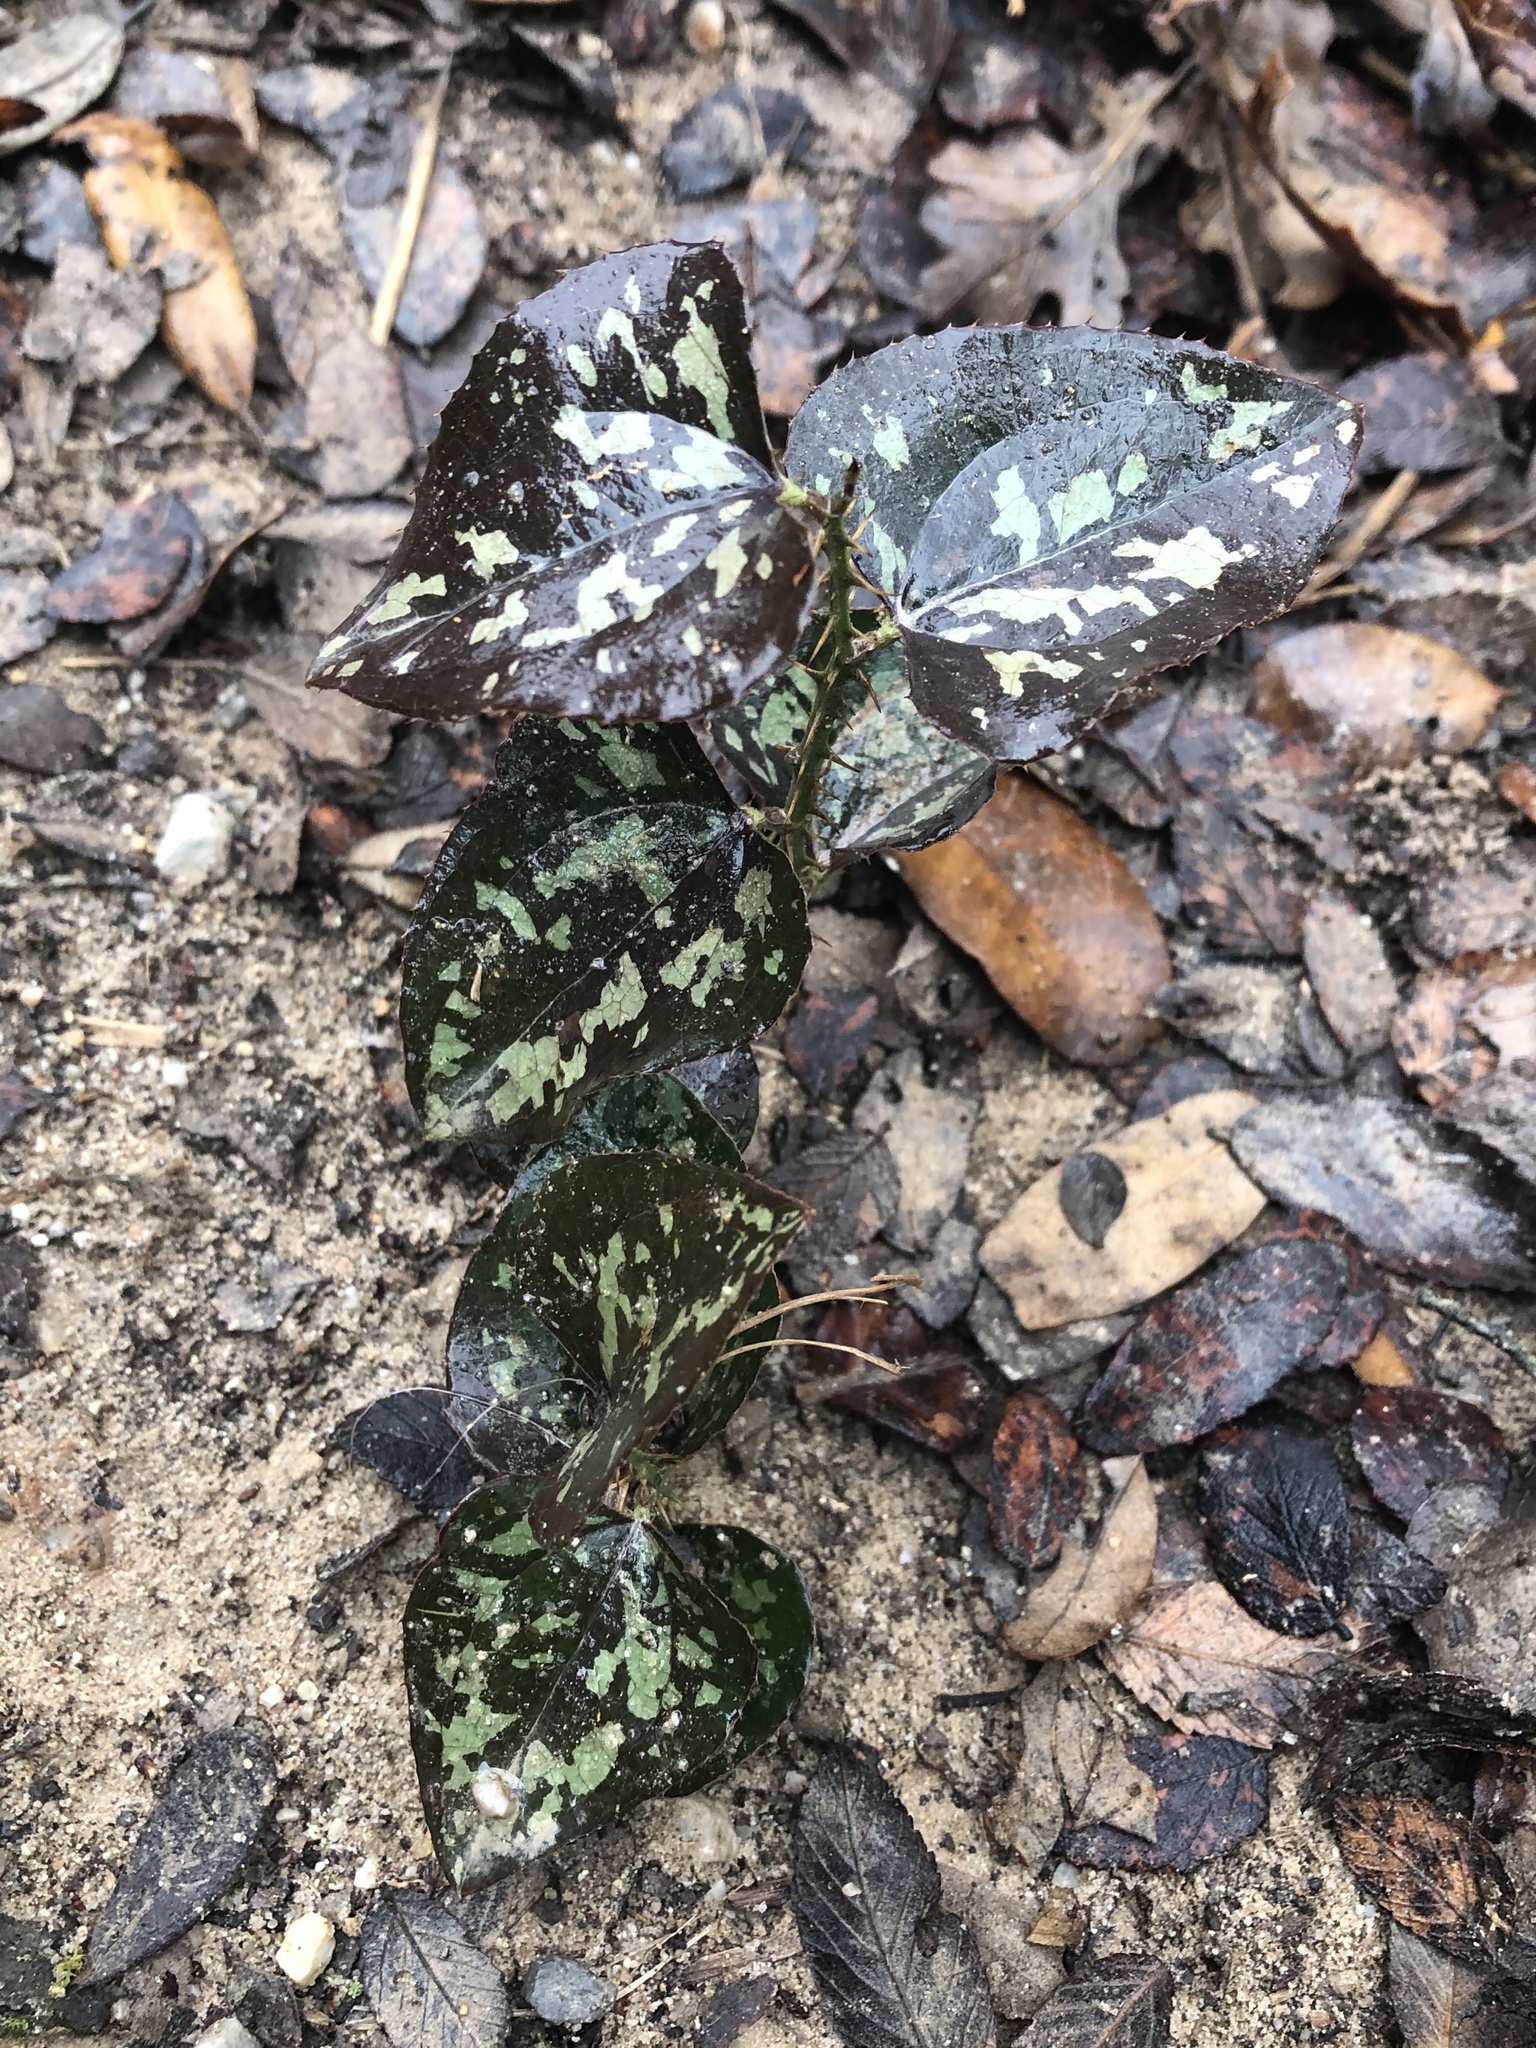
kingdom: Plantae
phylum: Tracheophyta
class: Liliopsida
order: Liliales
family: Smilacaceae
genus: Smilax
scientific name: Smilax bona-nox
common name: Catbrier
